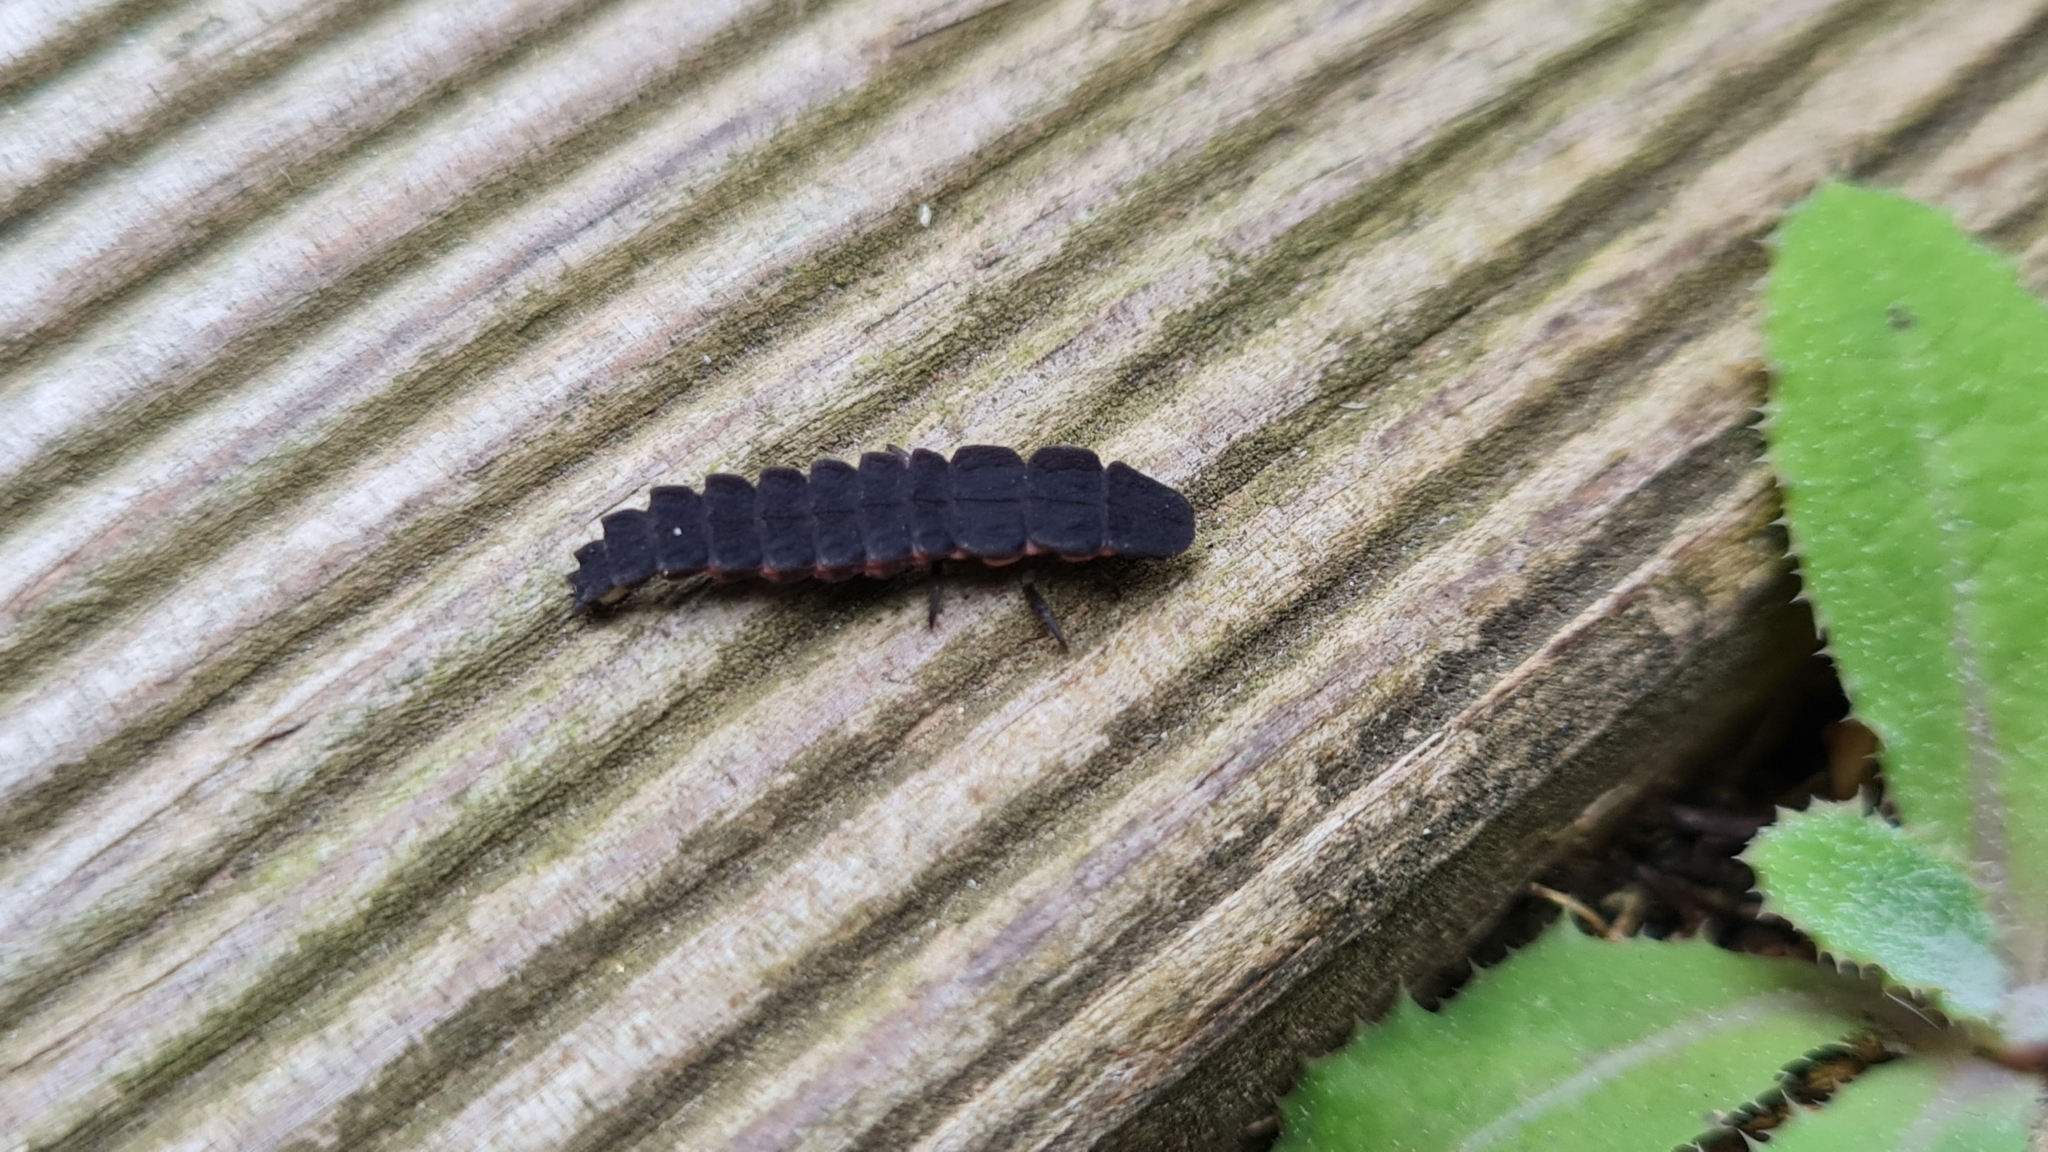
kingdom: Animalia
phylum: Arthropoda
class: Insecta
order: Coleoptera
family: Lampyridae
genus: Nyctophila
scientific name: Nyctophila reichii
